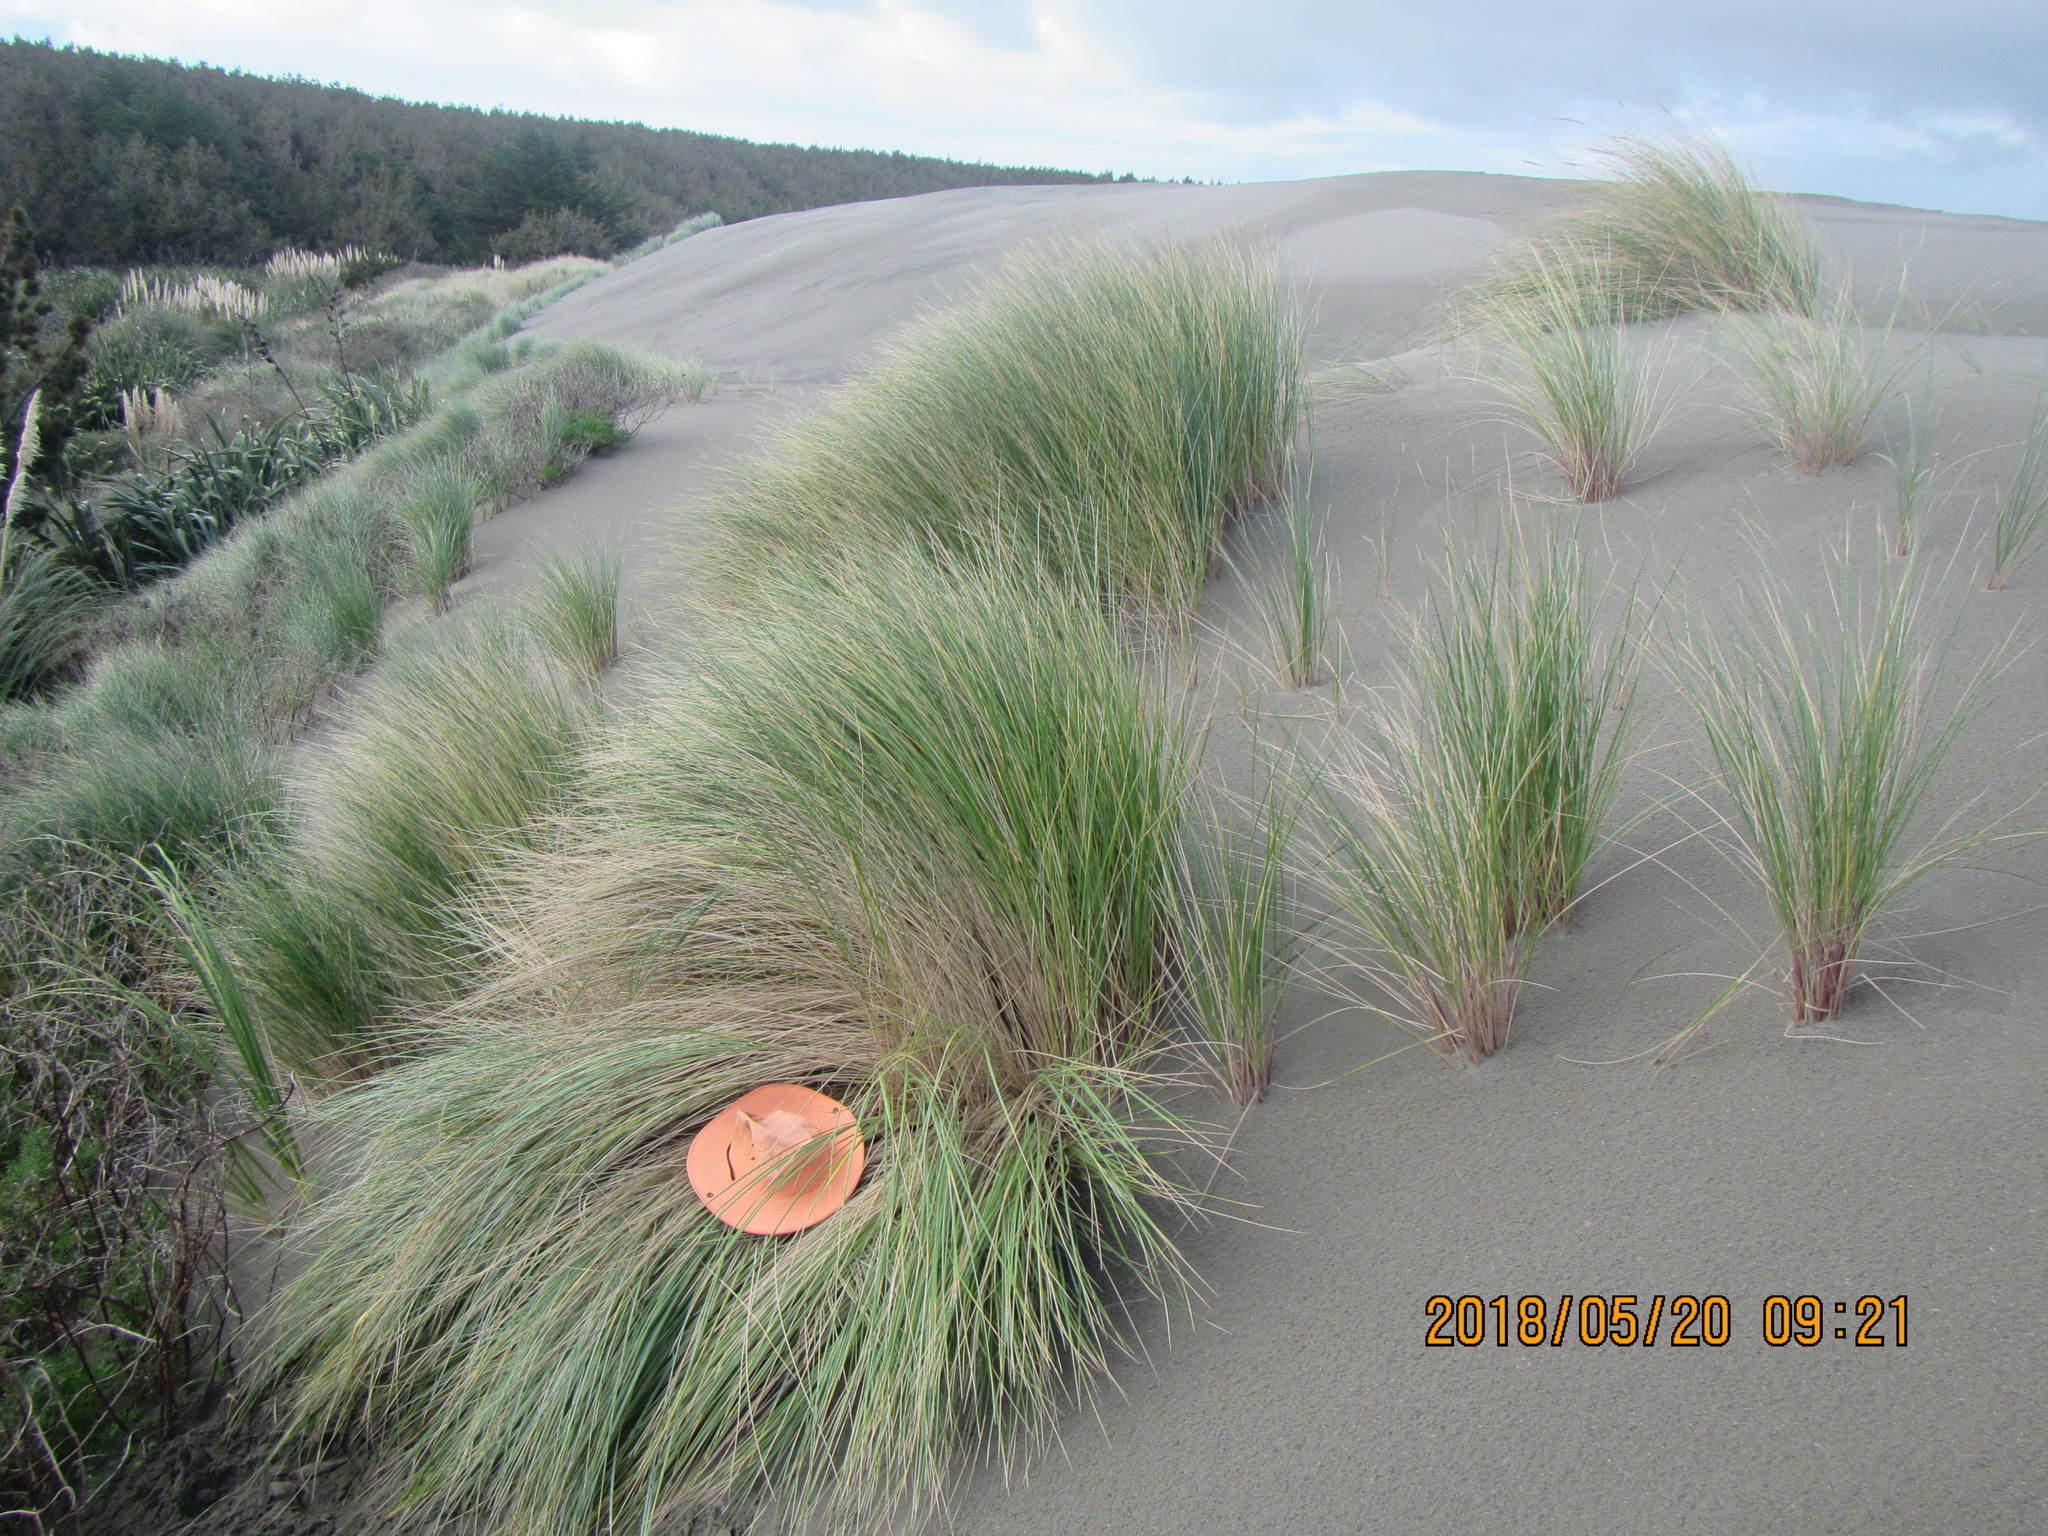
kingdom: Animalia
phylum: Arthropoda
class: Arachnida
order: Araneae
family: Theridiidae
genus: Steatoda
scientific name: Steatoda capensis
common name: Cobweb weaver
